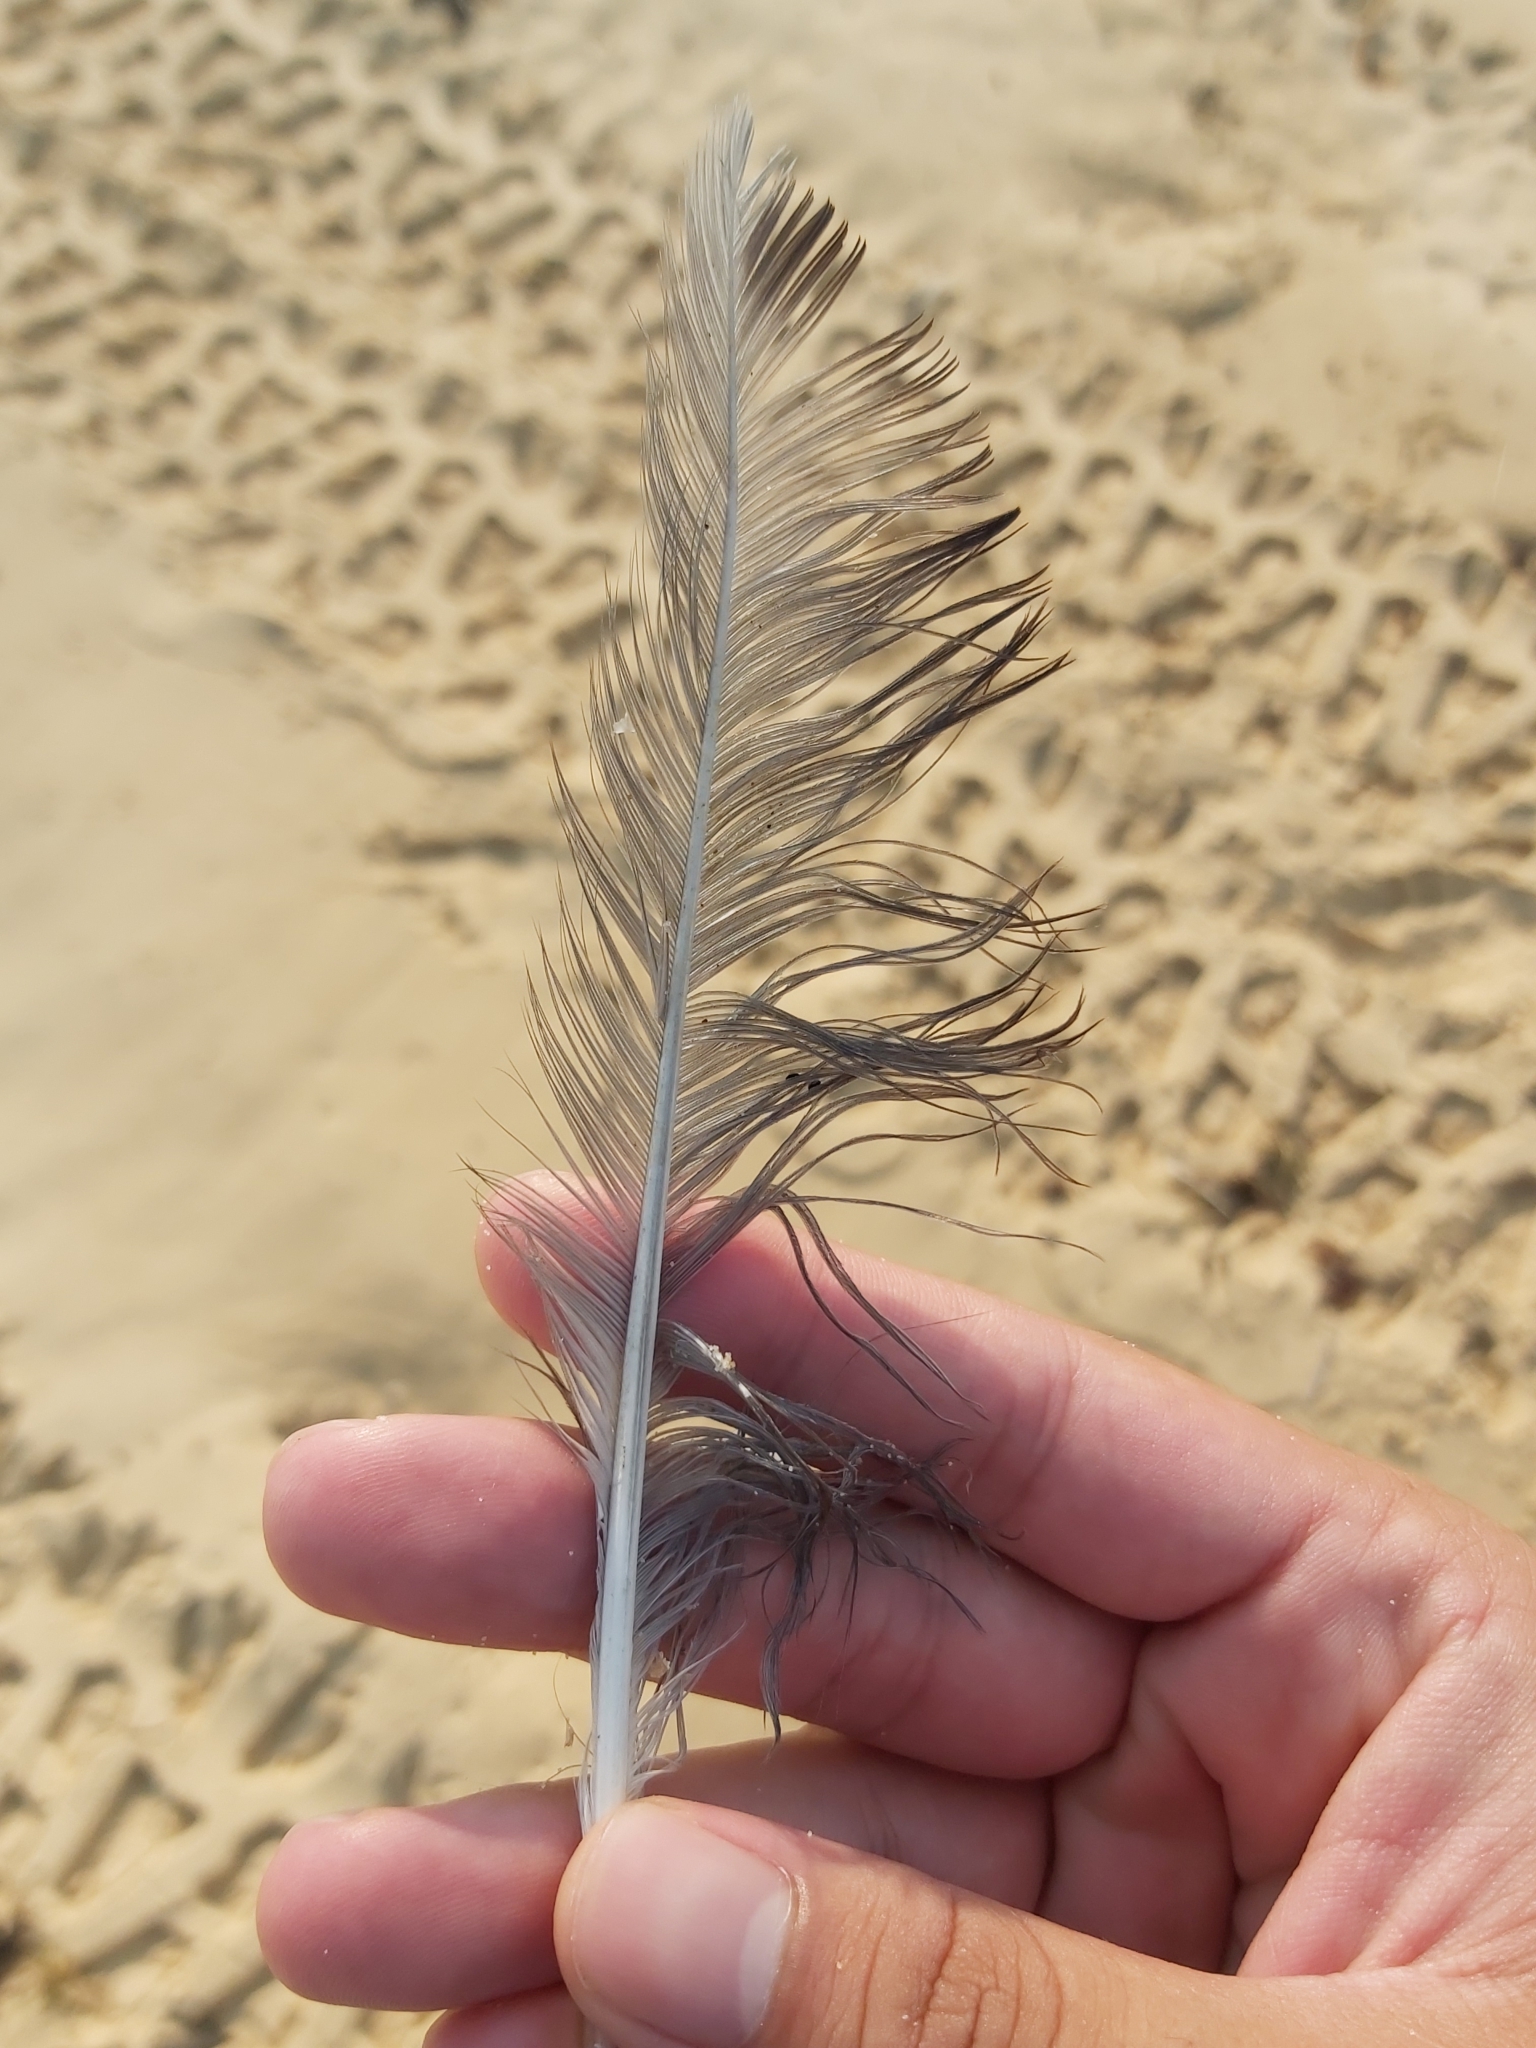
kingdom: Animalia
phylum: Chordata
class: Aves
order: Charadriiformes
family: Laridae
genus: Chroicocephalus
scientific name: Chroicocephalus novaehollandiae
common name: Silver gull
